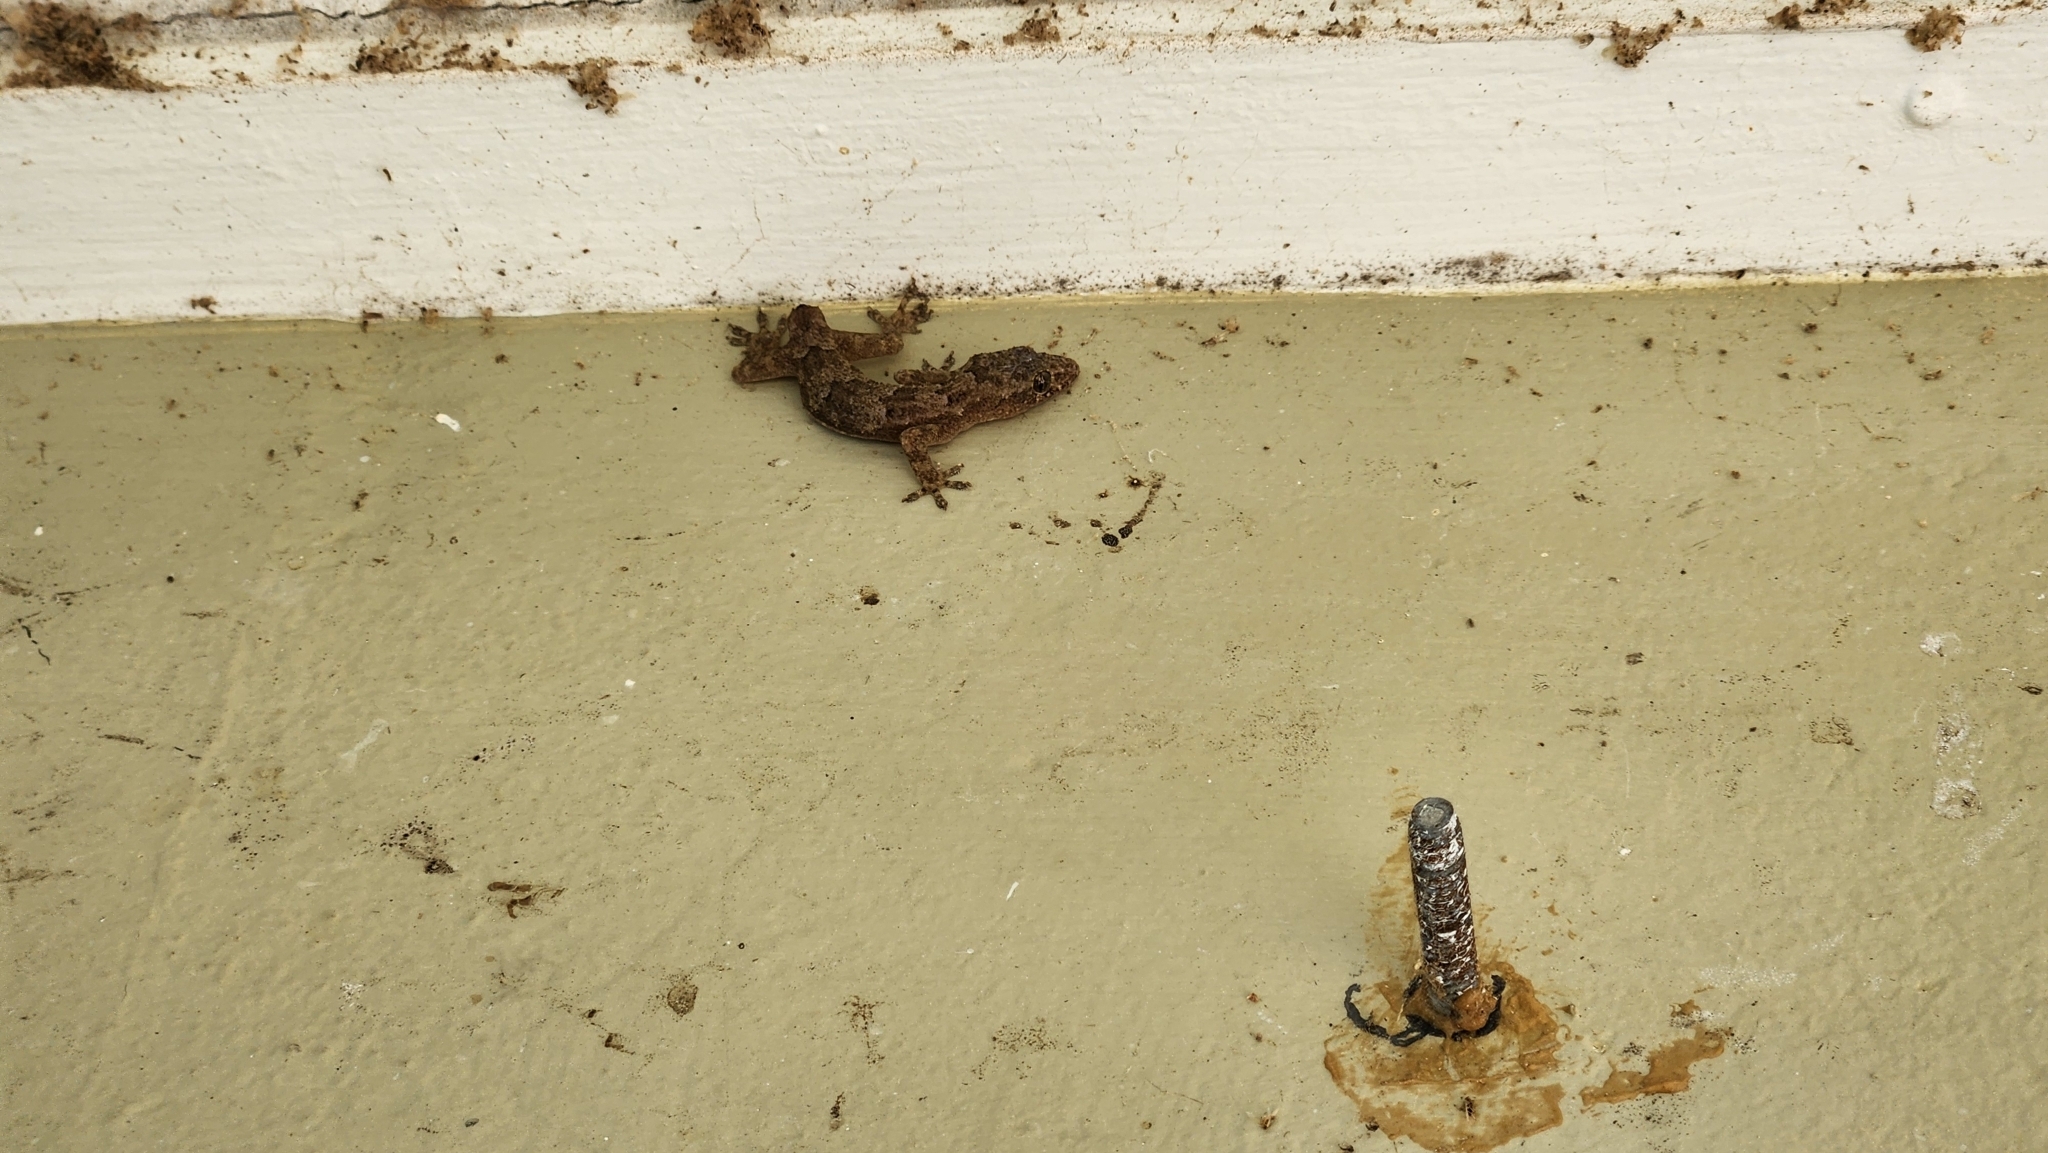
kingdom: Animalia
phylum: Chordata
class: Squamata
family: Gekkonidae
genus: Hemidactylus
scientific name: Hemidactylus mabouia
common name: House gecko
